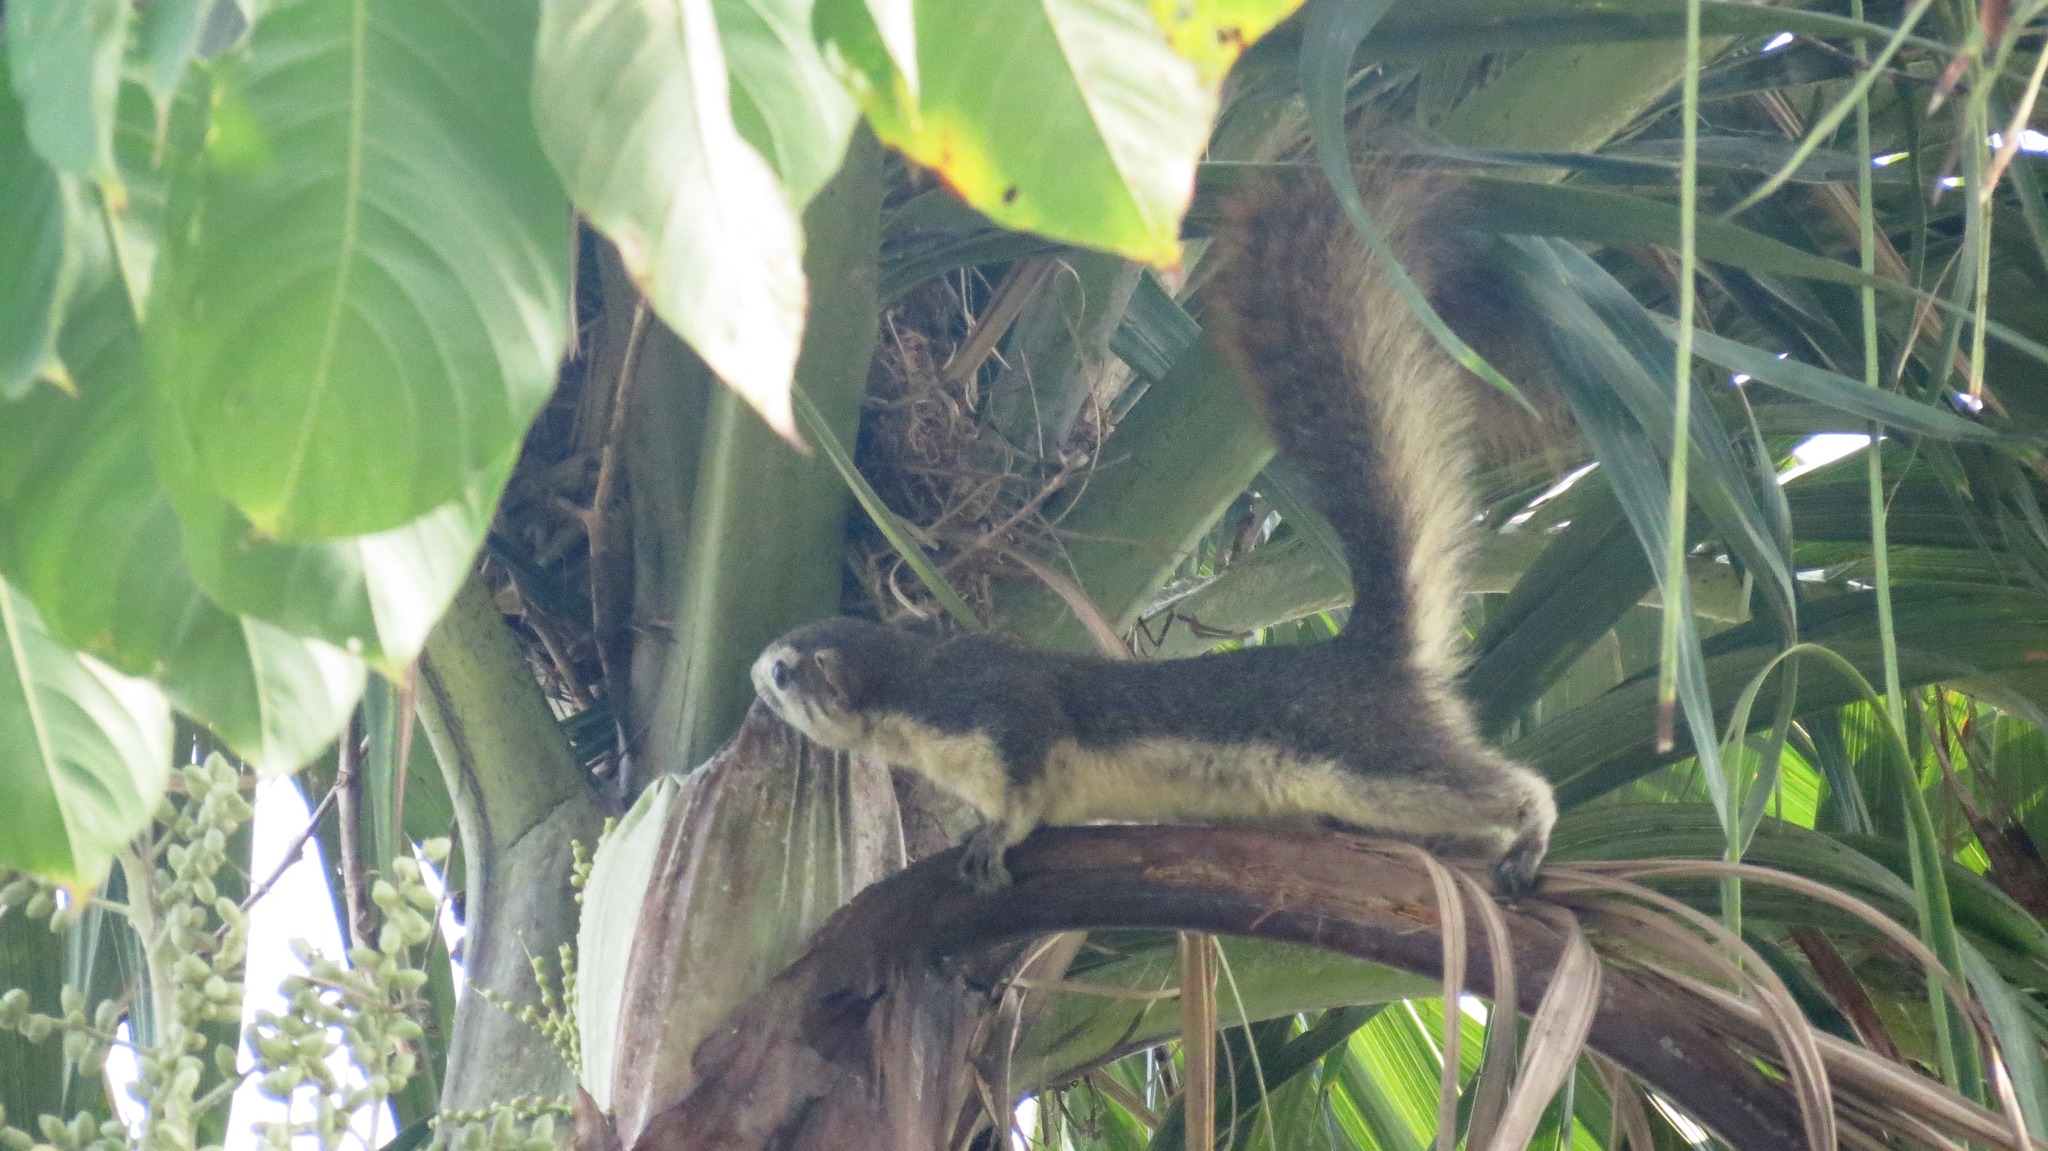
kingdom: Animalia
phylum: Chordata
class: Mammalia
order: Rodentia
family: Sciuridae
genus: Callosciurus
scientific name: Callosciurus finlaysonii
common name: Finlayson's squirrel
